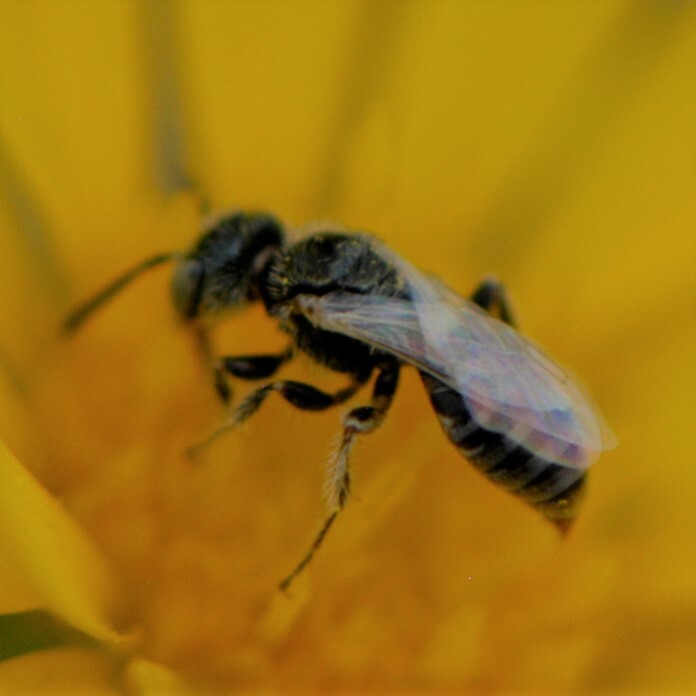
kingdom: Animalia
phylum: Arthropoda
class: Insecta
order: Hymenoptera
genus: Pentaperdita
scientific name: Pentaperdita
